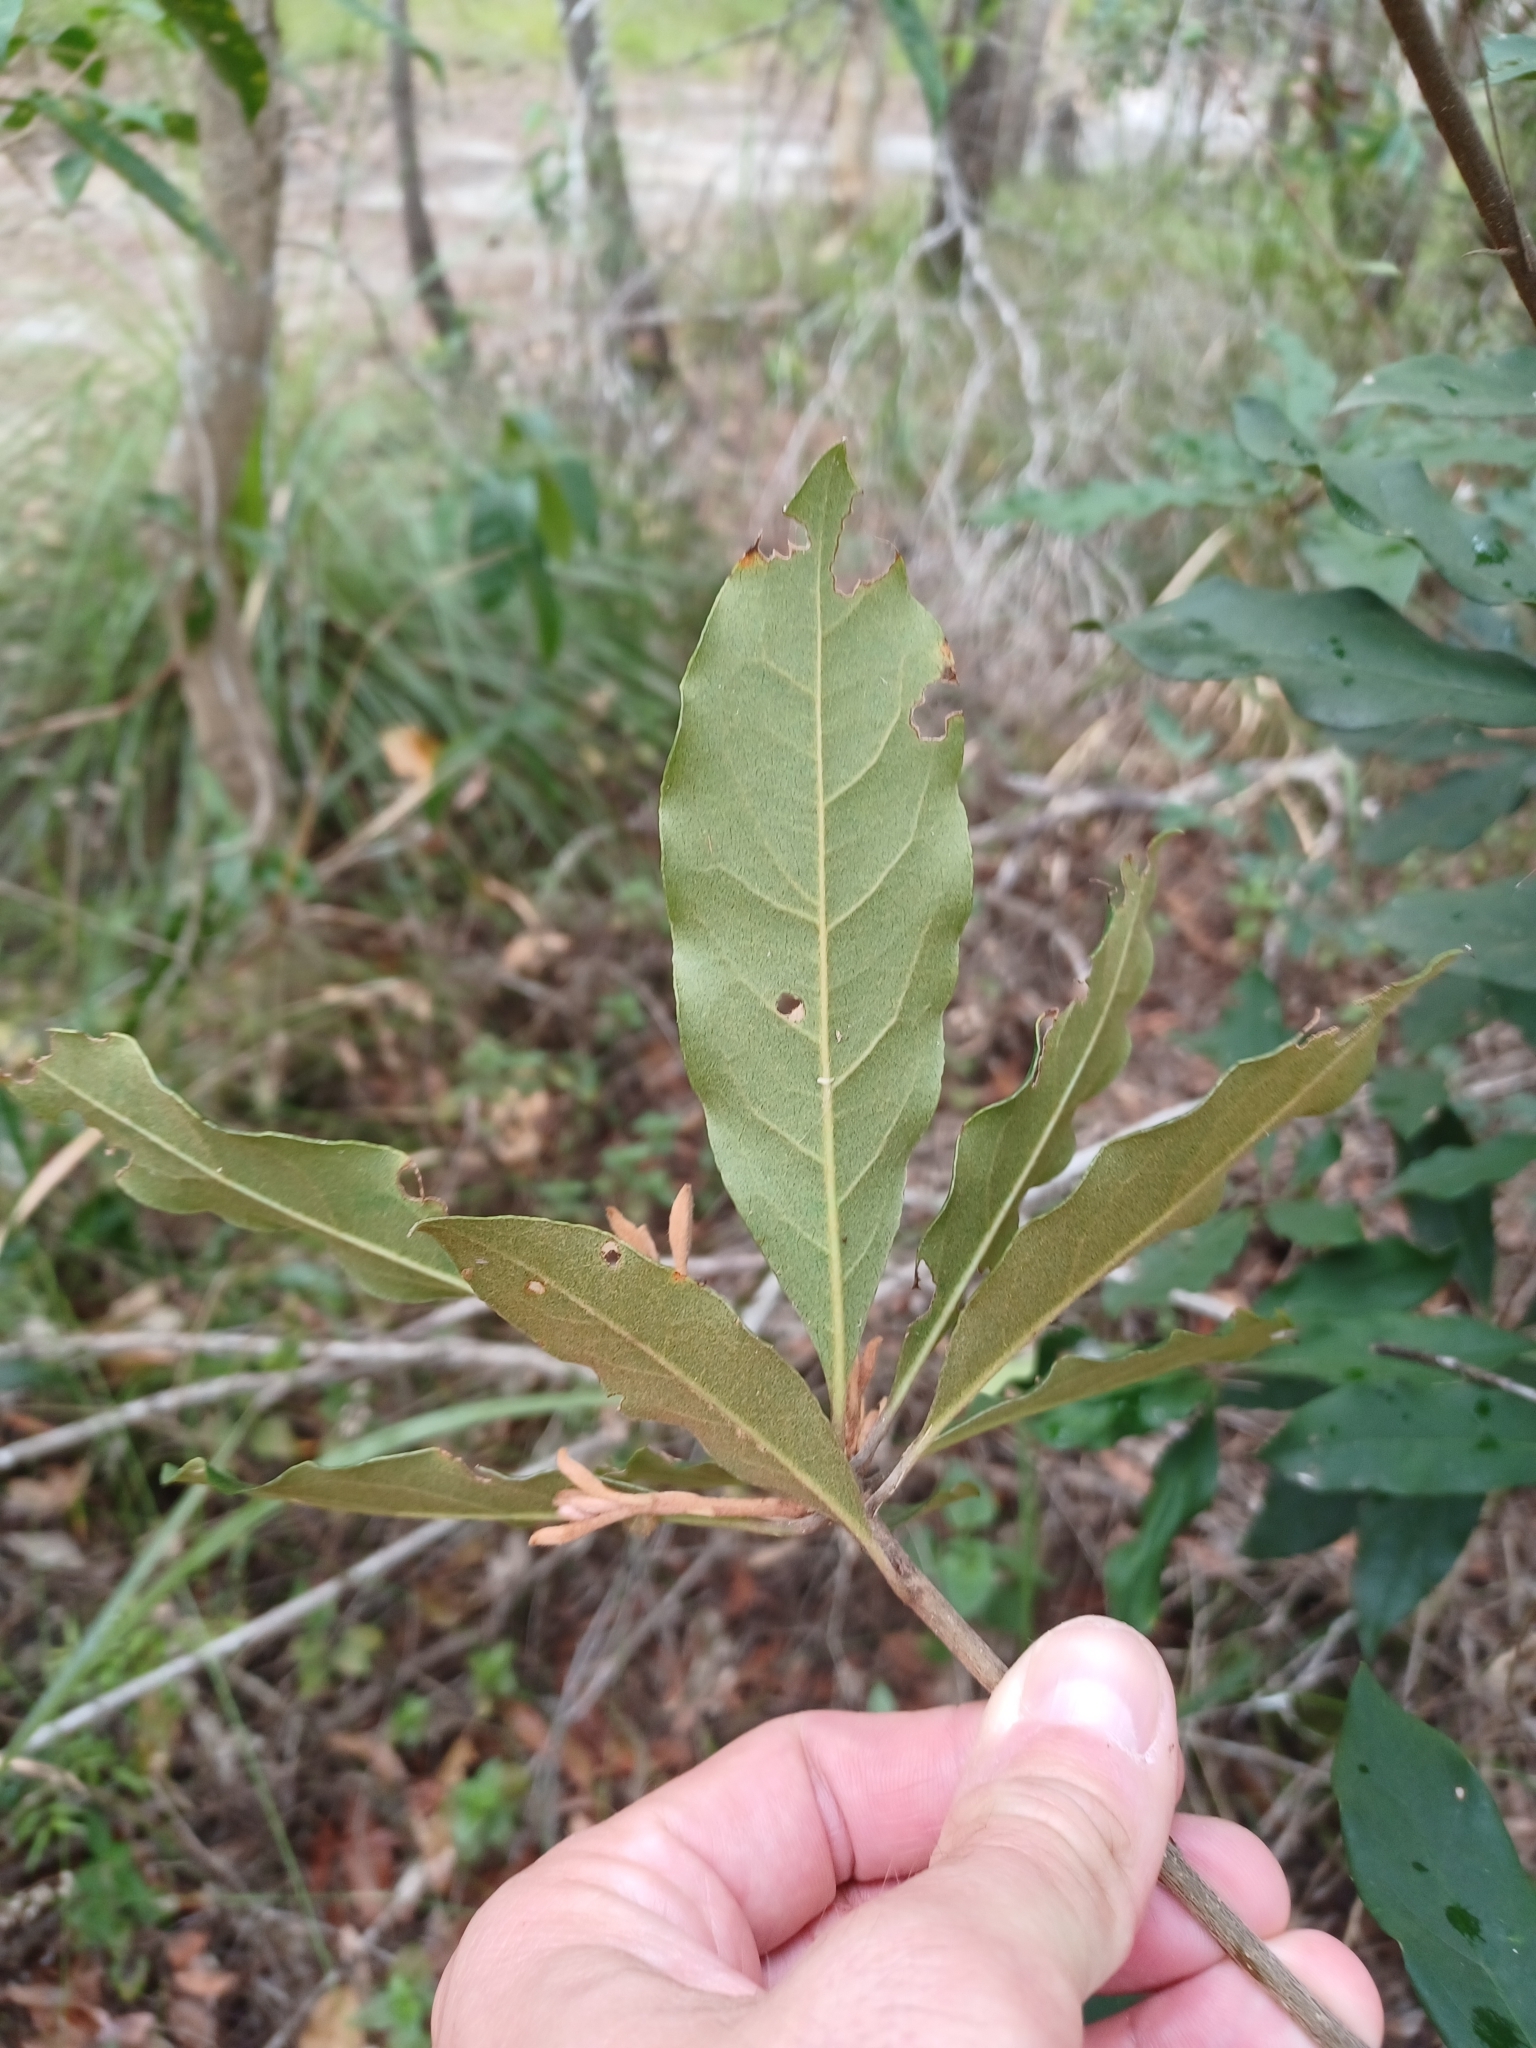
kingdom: Plantae
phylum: Tracheophyta
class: Magnoliopsida
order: Apiales
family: Pittosporaceae
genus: Pittosporum
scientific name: Pittosporum revolutum
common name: Brisbane-laurel
